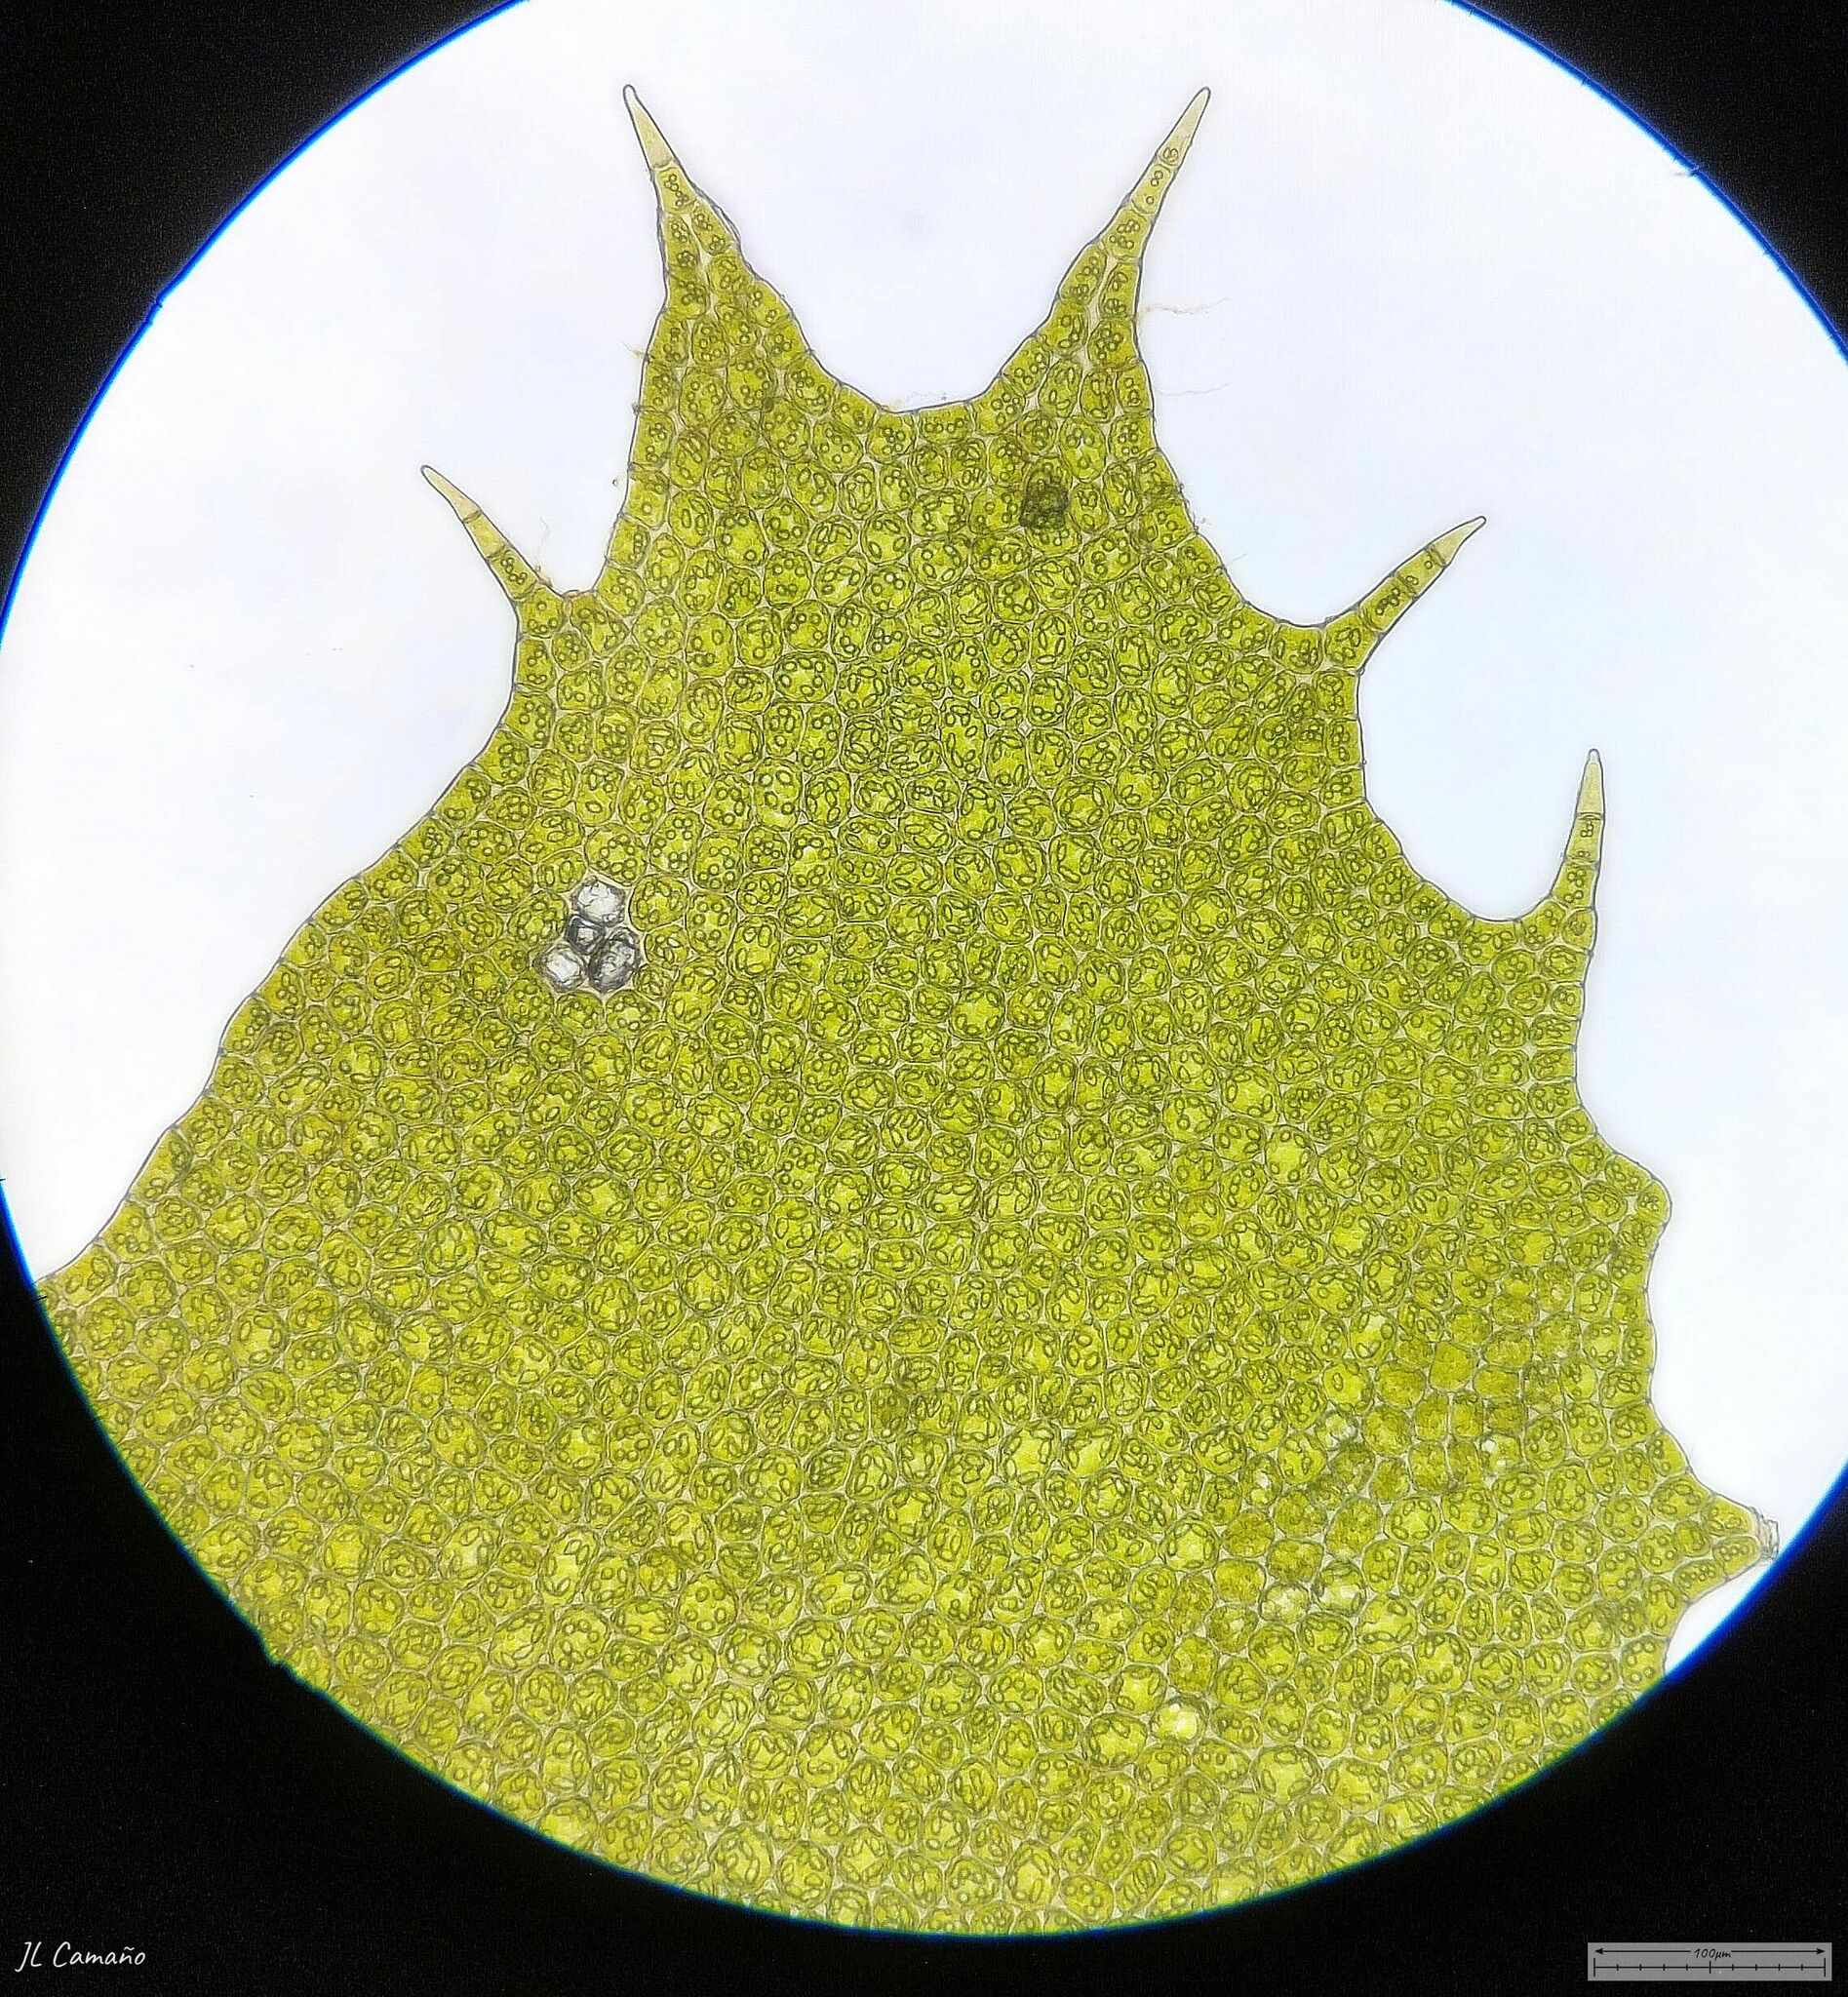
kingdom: Plantae
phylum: Marchantiophyta
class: Jungermanniopsida
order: Jungermanniales
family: Plagiochilaceae
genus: Plagiochila
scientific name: Plagiochila bifaria
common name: Killarney featherwort
